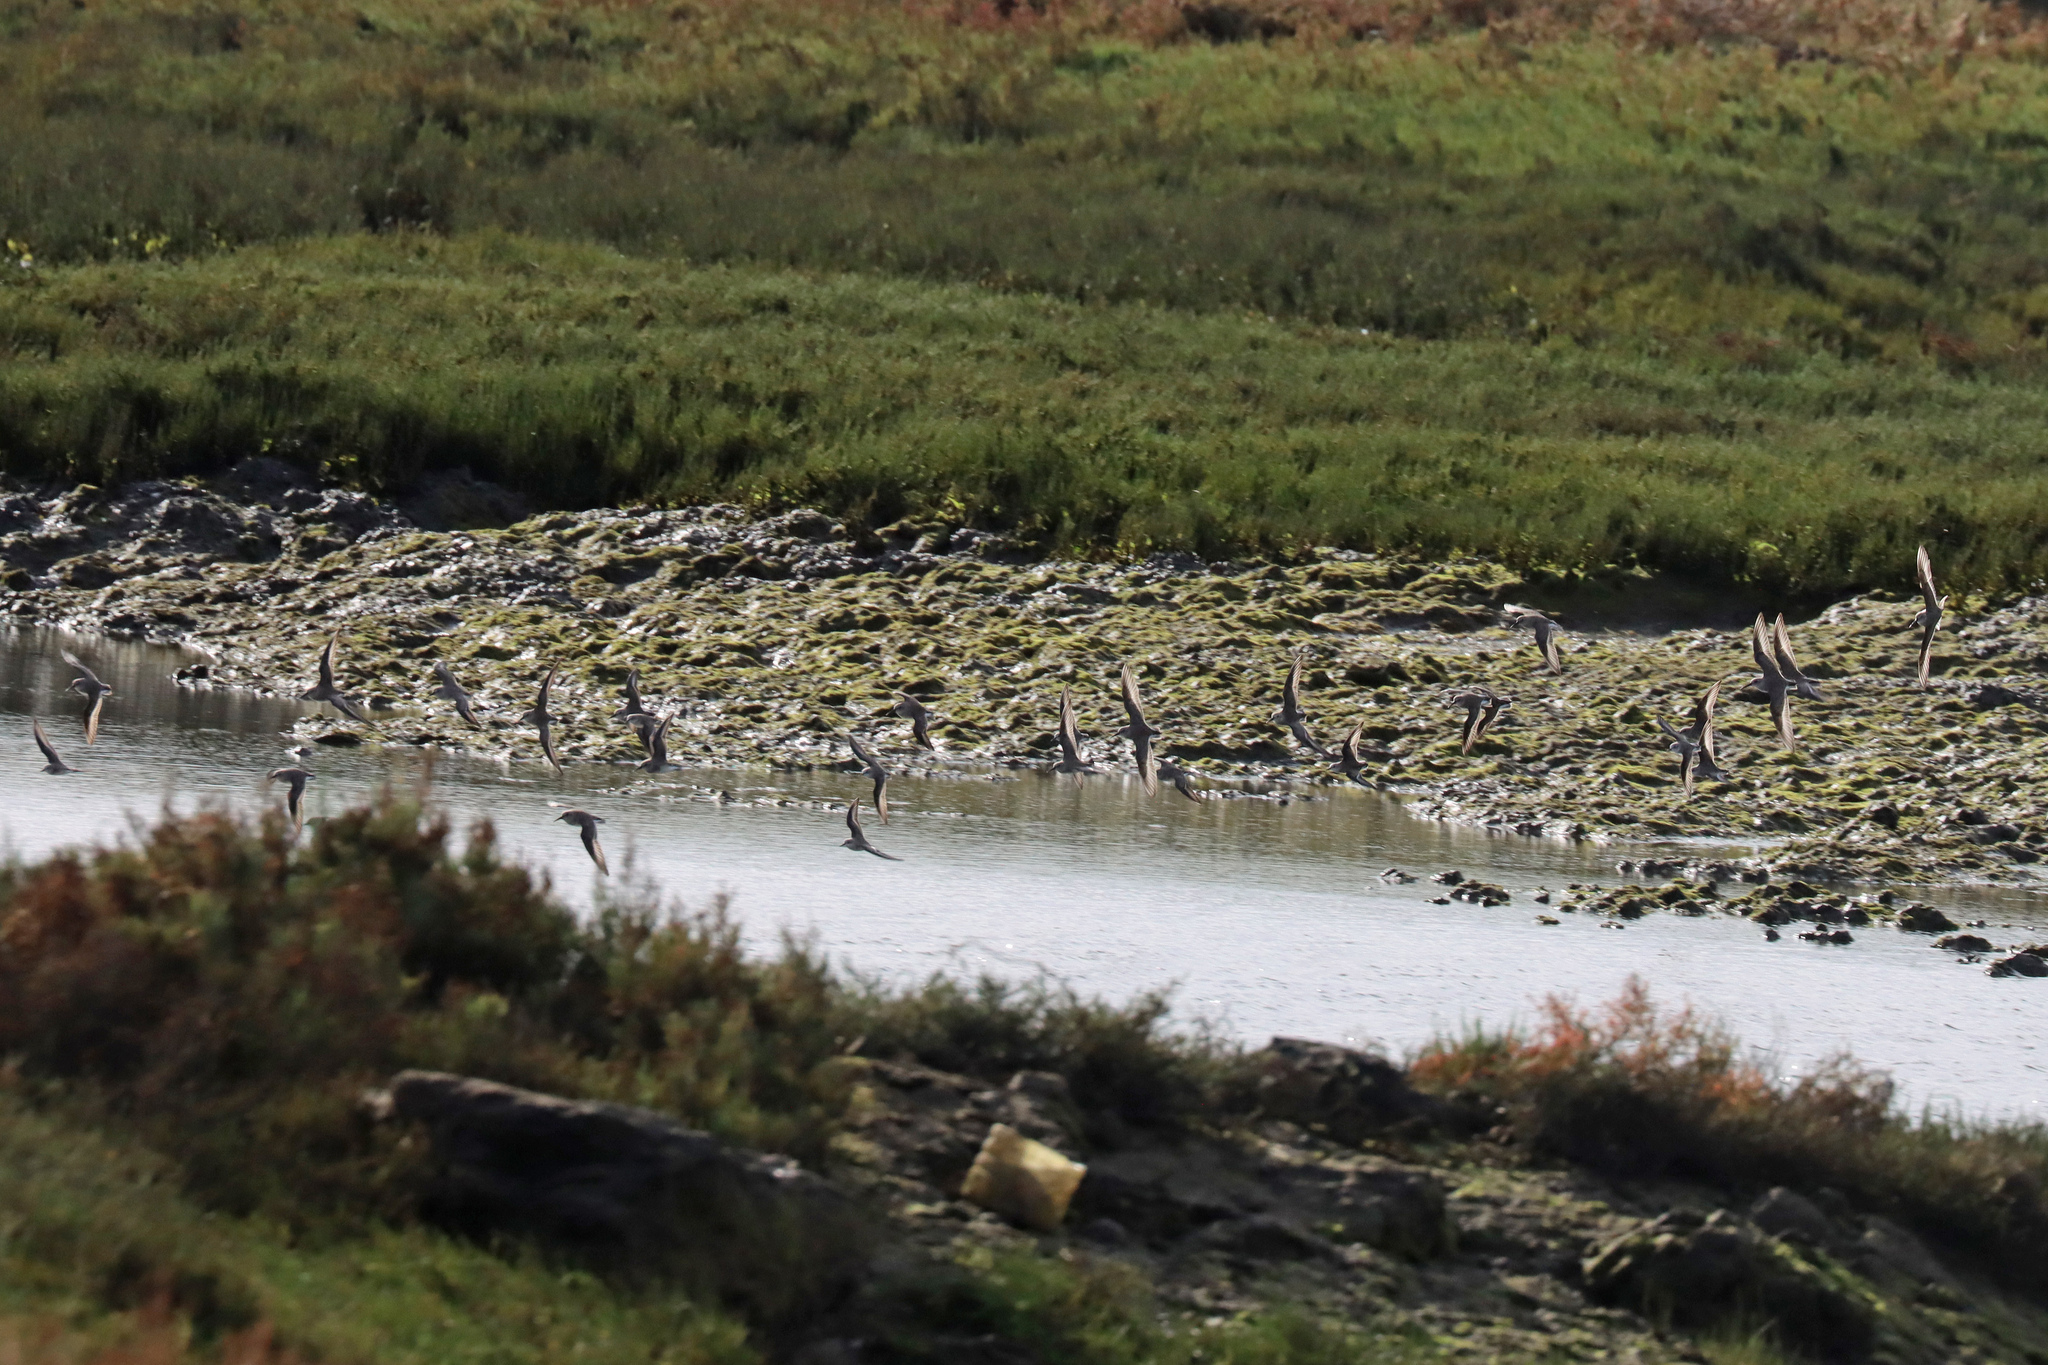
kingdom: Animalia
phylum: Chordata
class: Aves
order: Charadriiformes
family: Scolopacidae
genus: Calidris
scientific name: Calidris alpina
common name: Dunlin
